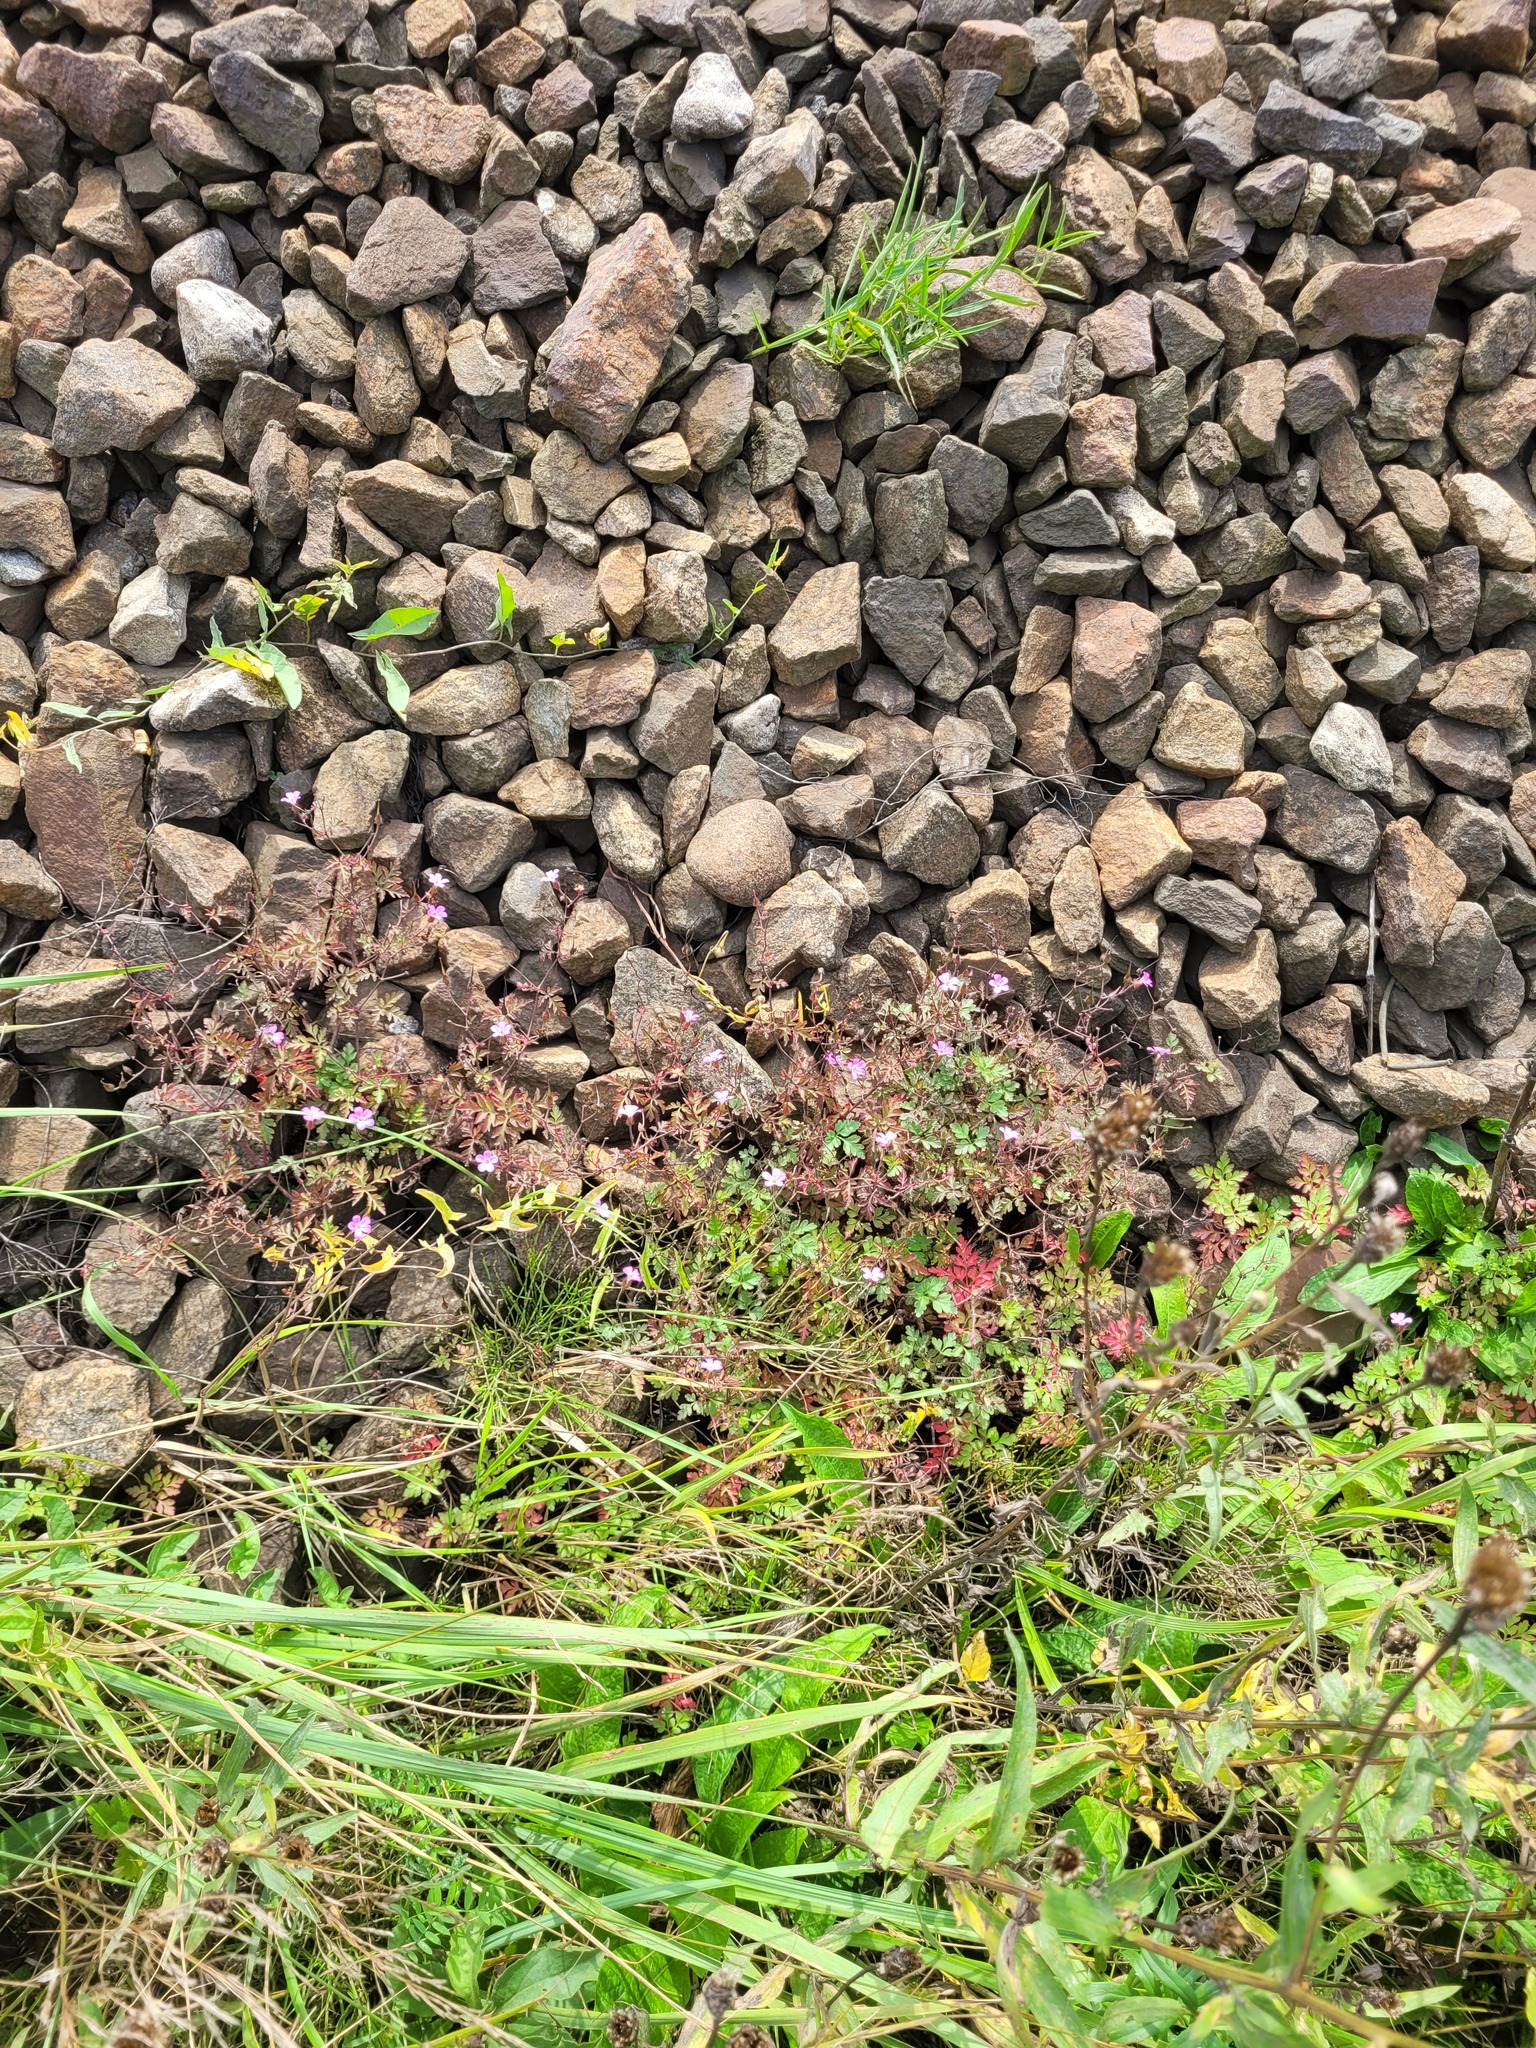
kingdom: Plantae
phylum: Tracheophyta
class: Magnoliopsida
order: Geraniales
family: Geraniaceae
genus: Geranium
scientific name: Geranium robertianum
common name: Herb-robert
